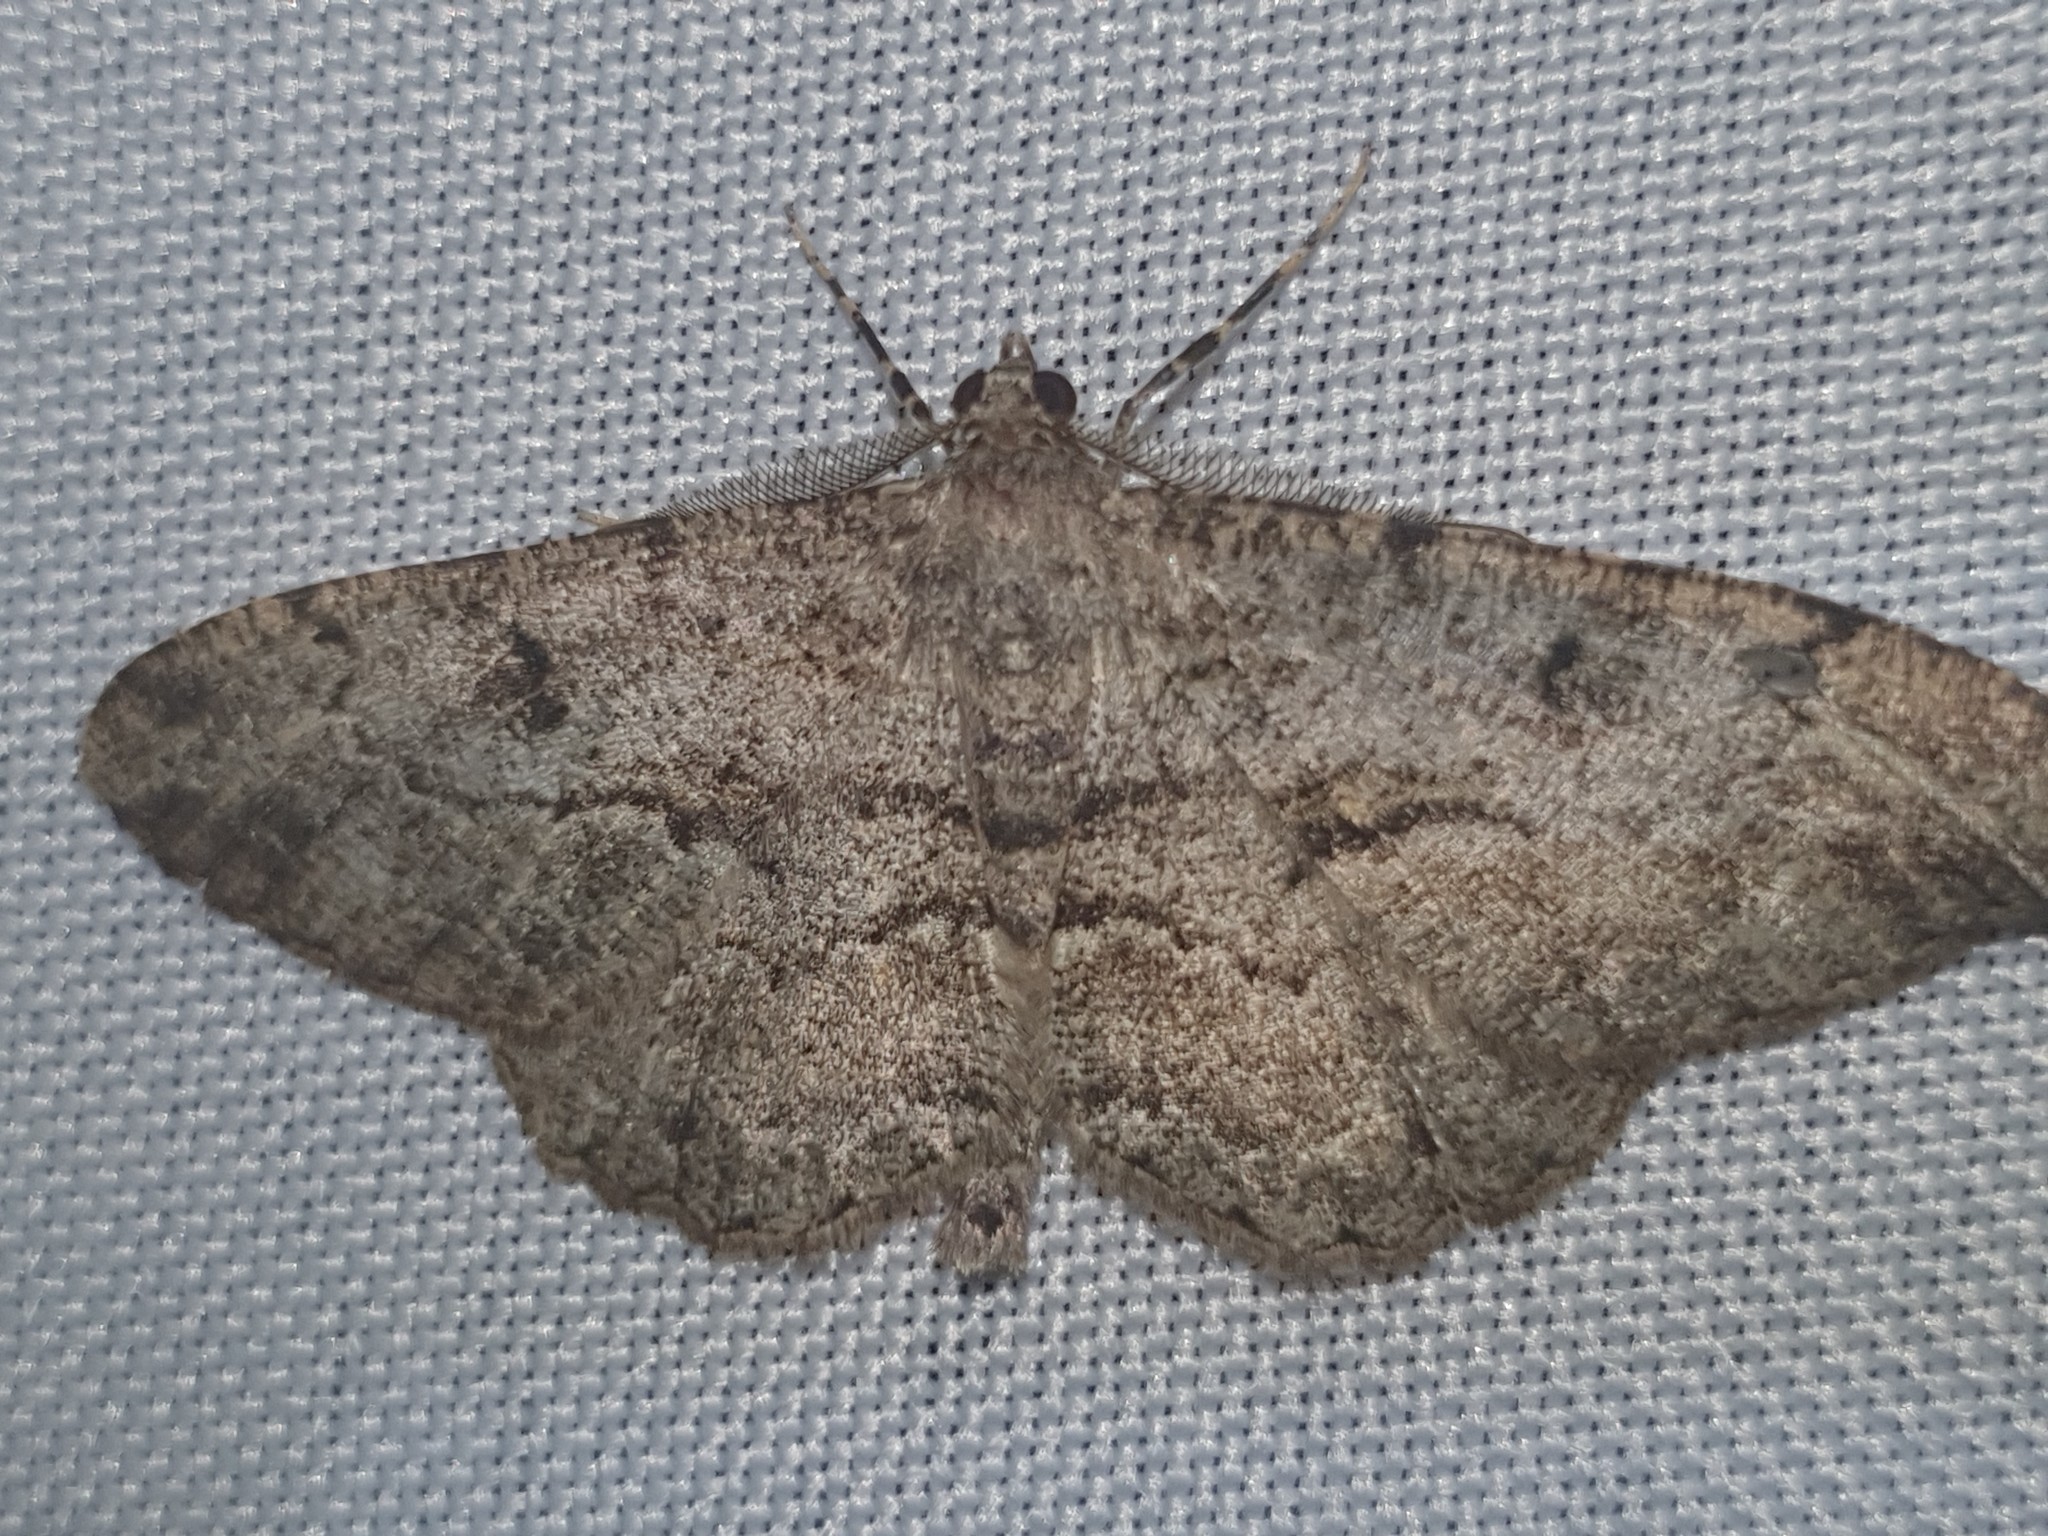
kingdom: Animalia
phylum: Arthropoda
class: Insecta
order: Lepidoptera
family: Geometridae
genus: Peribatodes
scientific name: Peribatodes rhomboidaria
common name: Willow beauty
